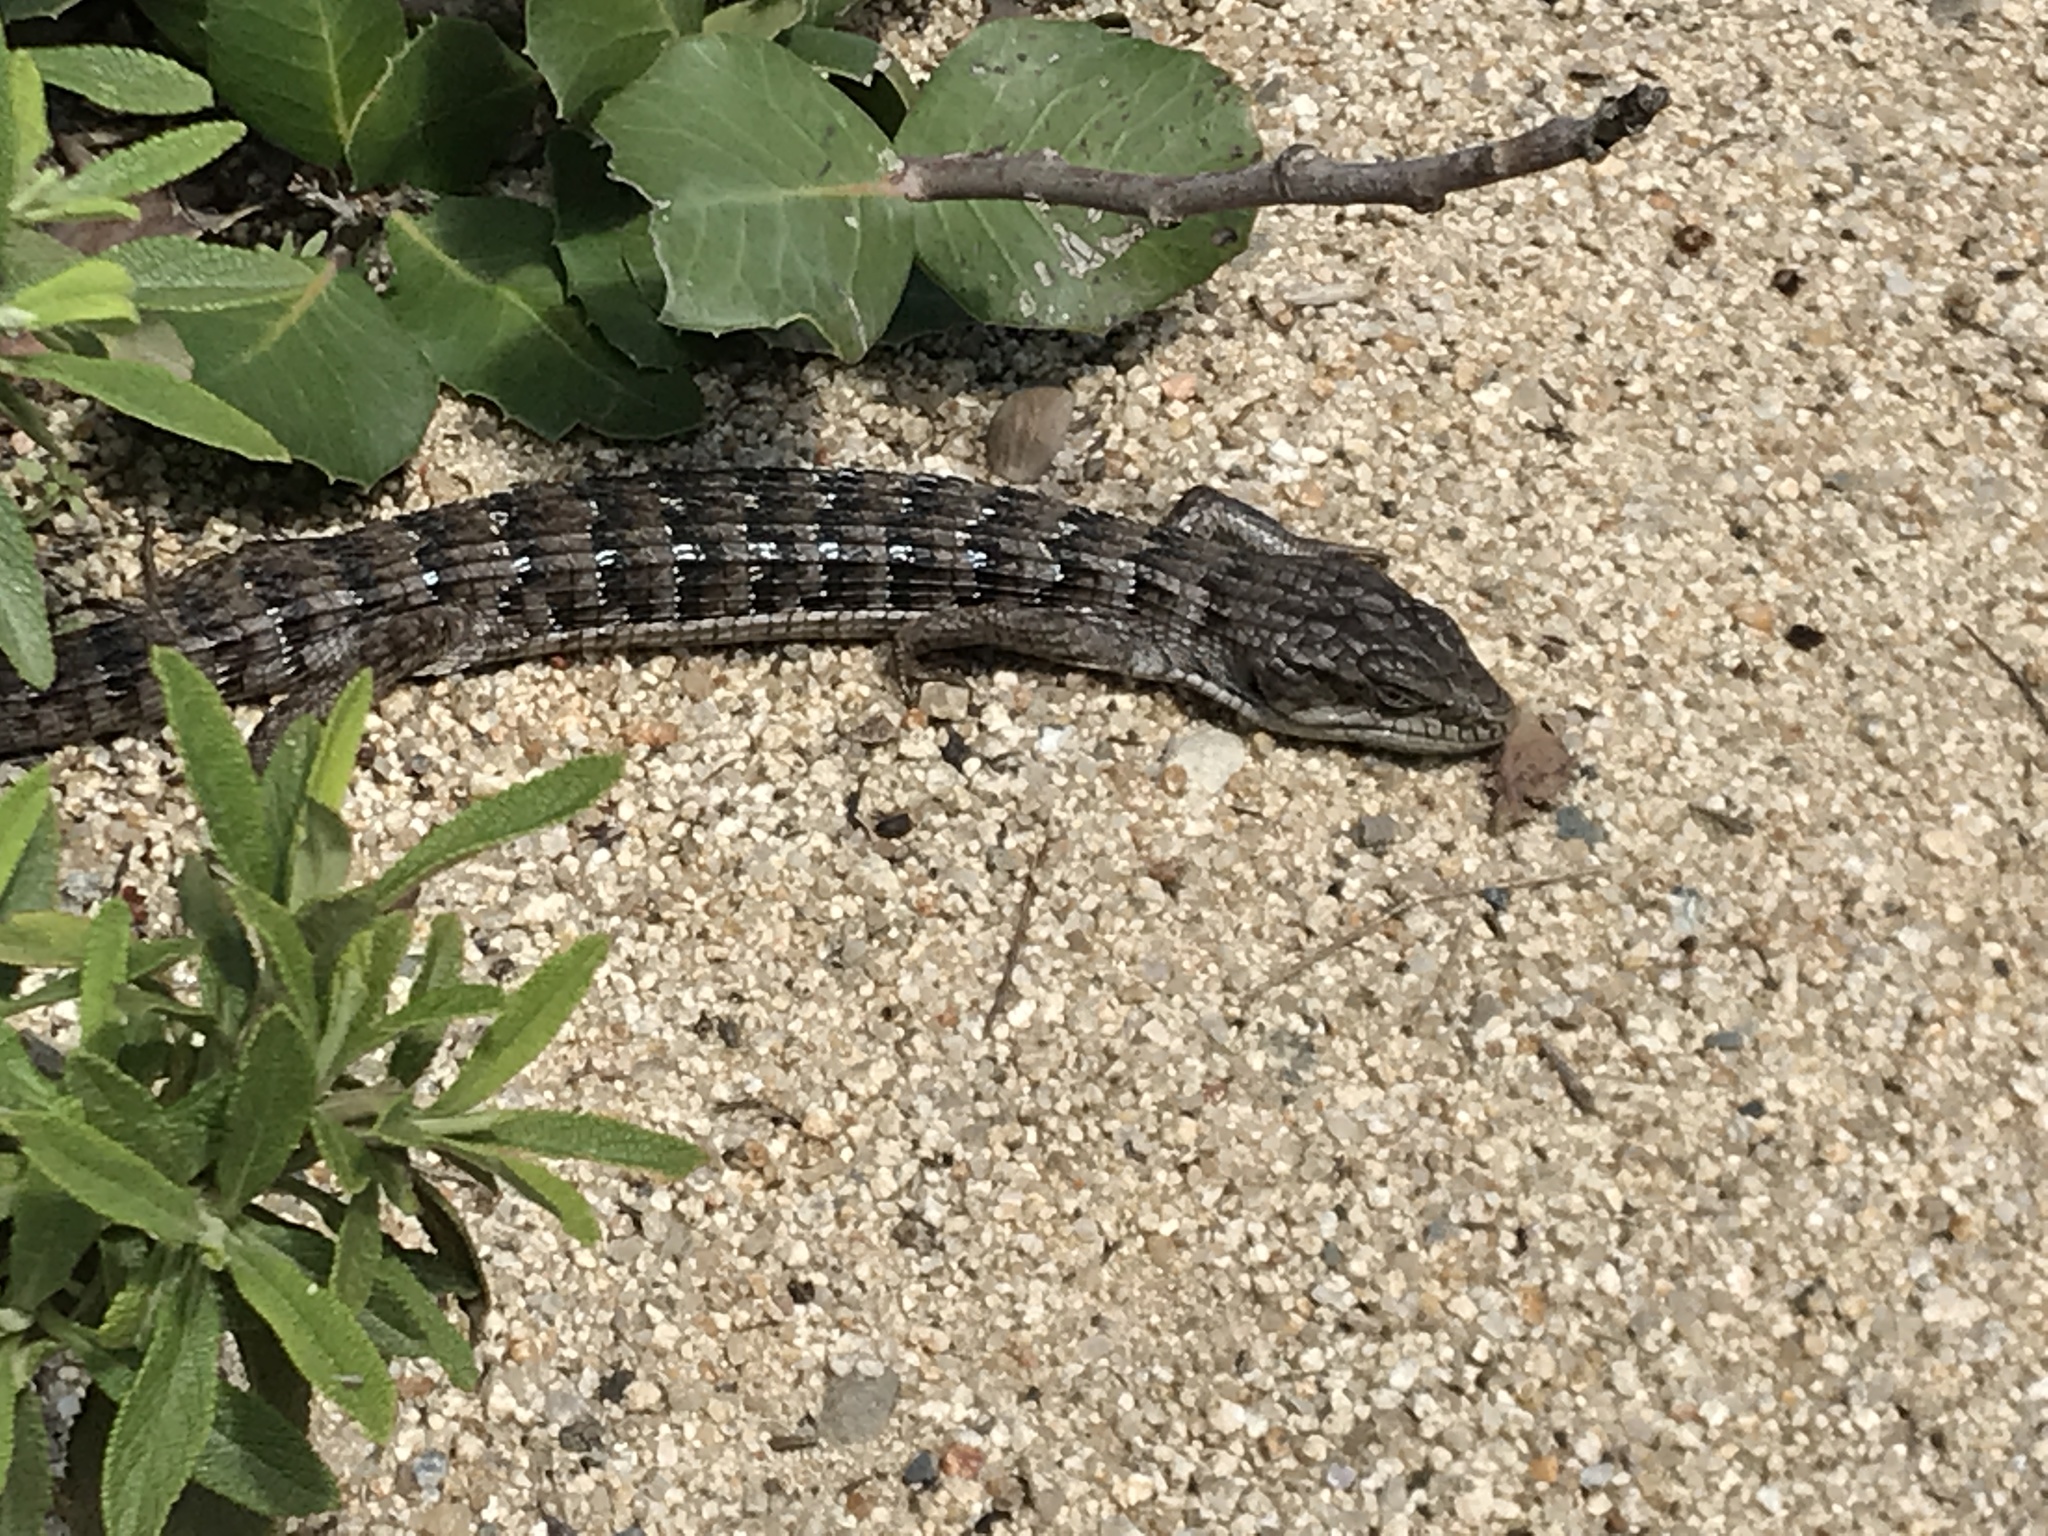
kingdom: Animalia
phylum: Chordata
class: Squamata
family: Anguidae
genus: Elgaria
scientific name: Elgaria multicarinata
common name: Southern alligator lizard
